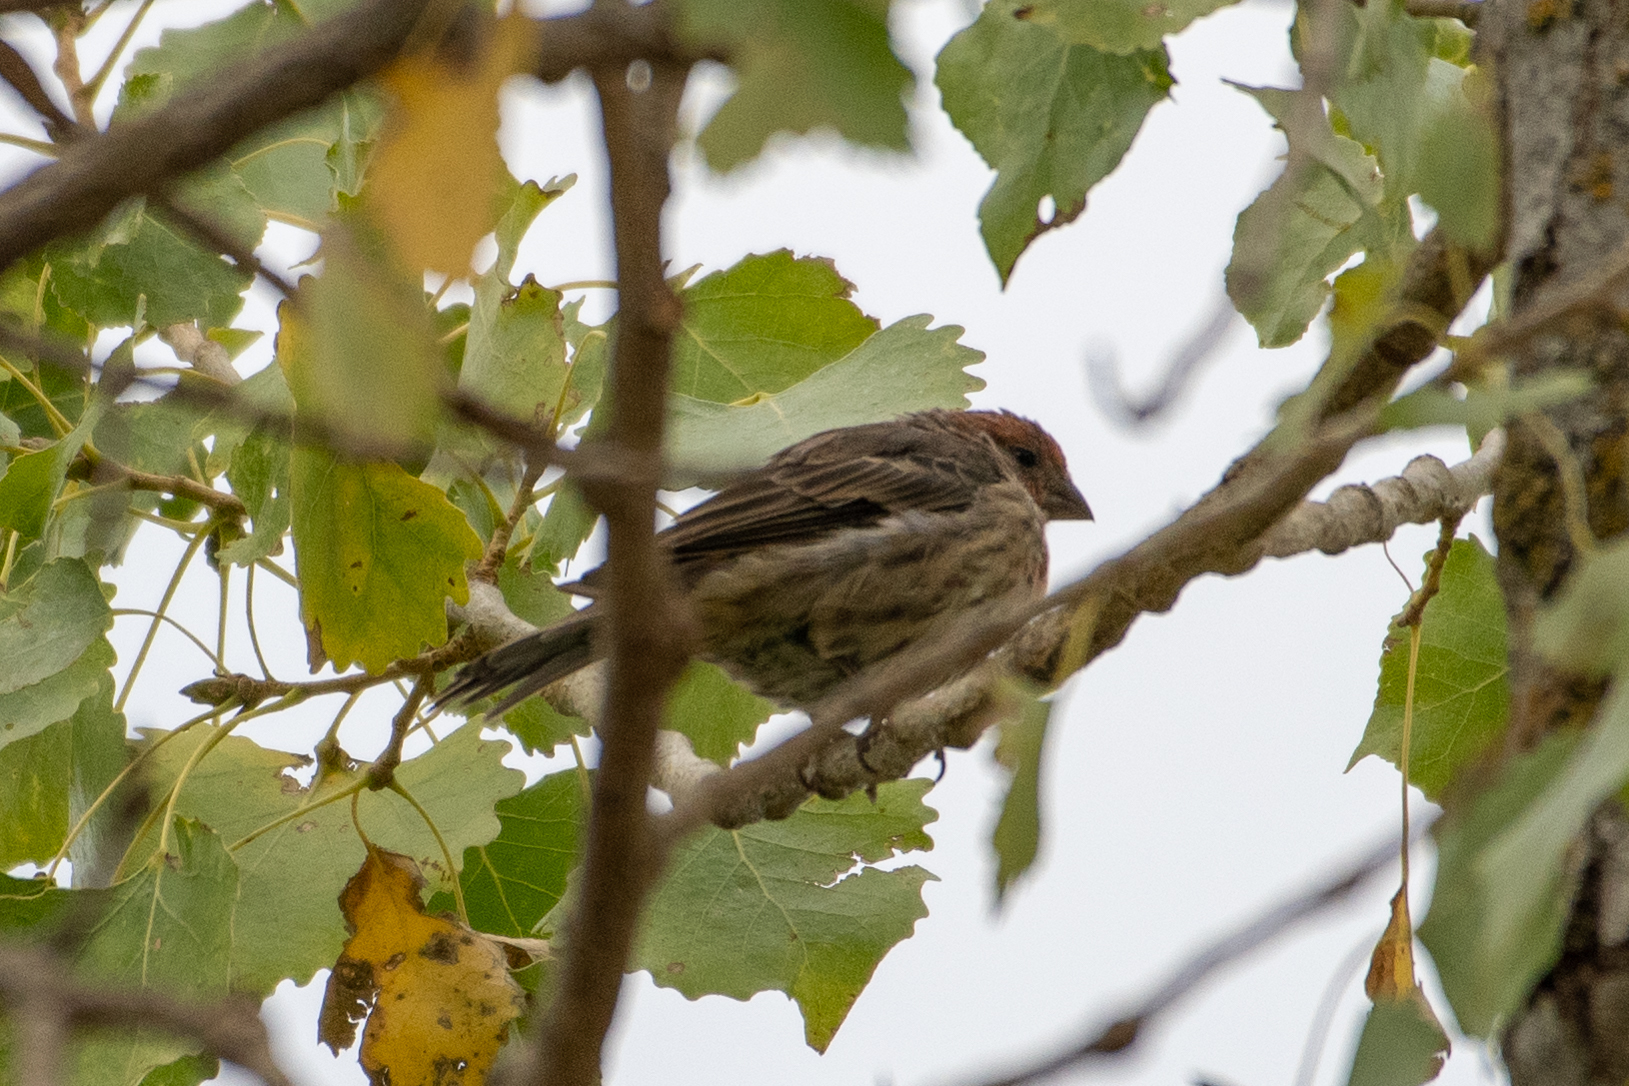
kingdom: Animalia
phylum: Chordata
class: Aves
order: Passeriformes
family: Fringillidae
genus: Haemorhous
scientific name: Haemorhous mexicanus
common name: House finch
